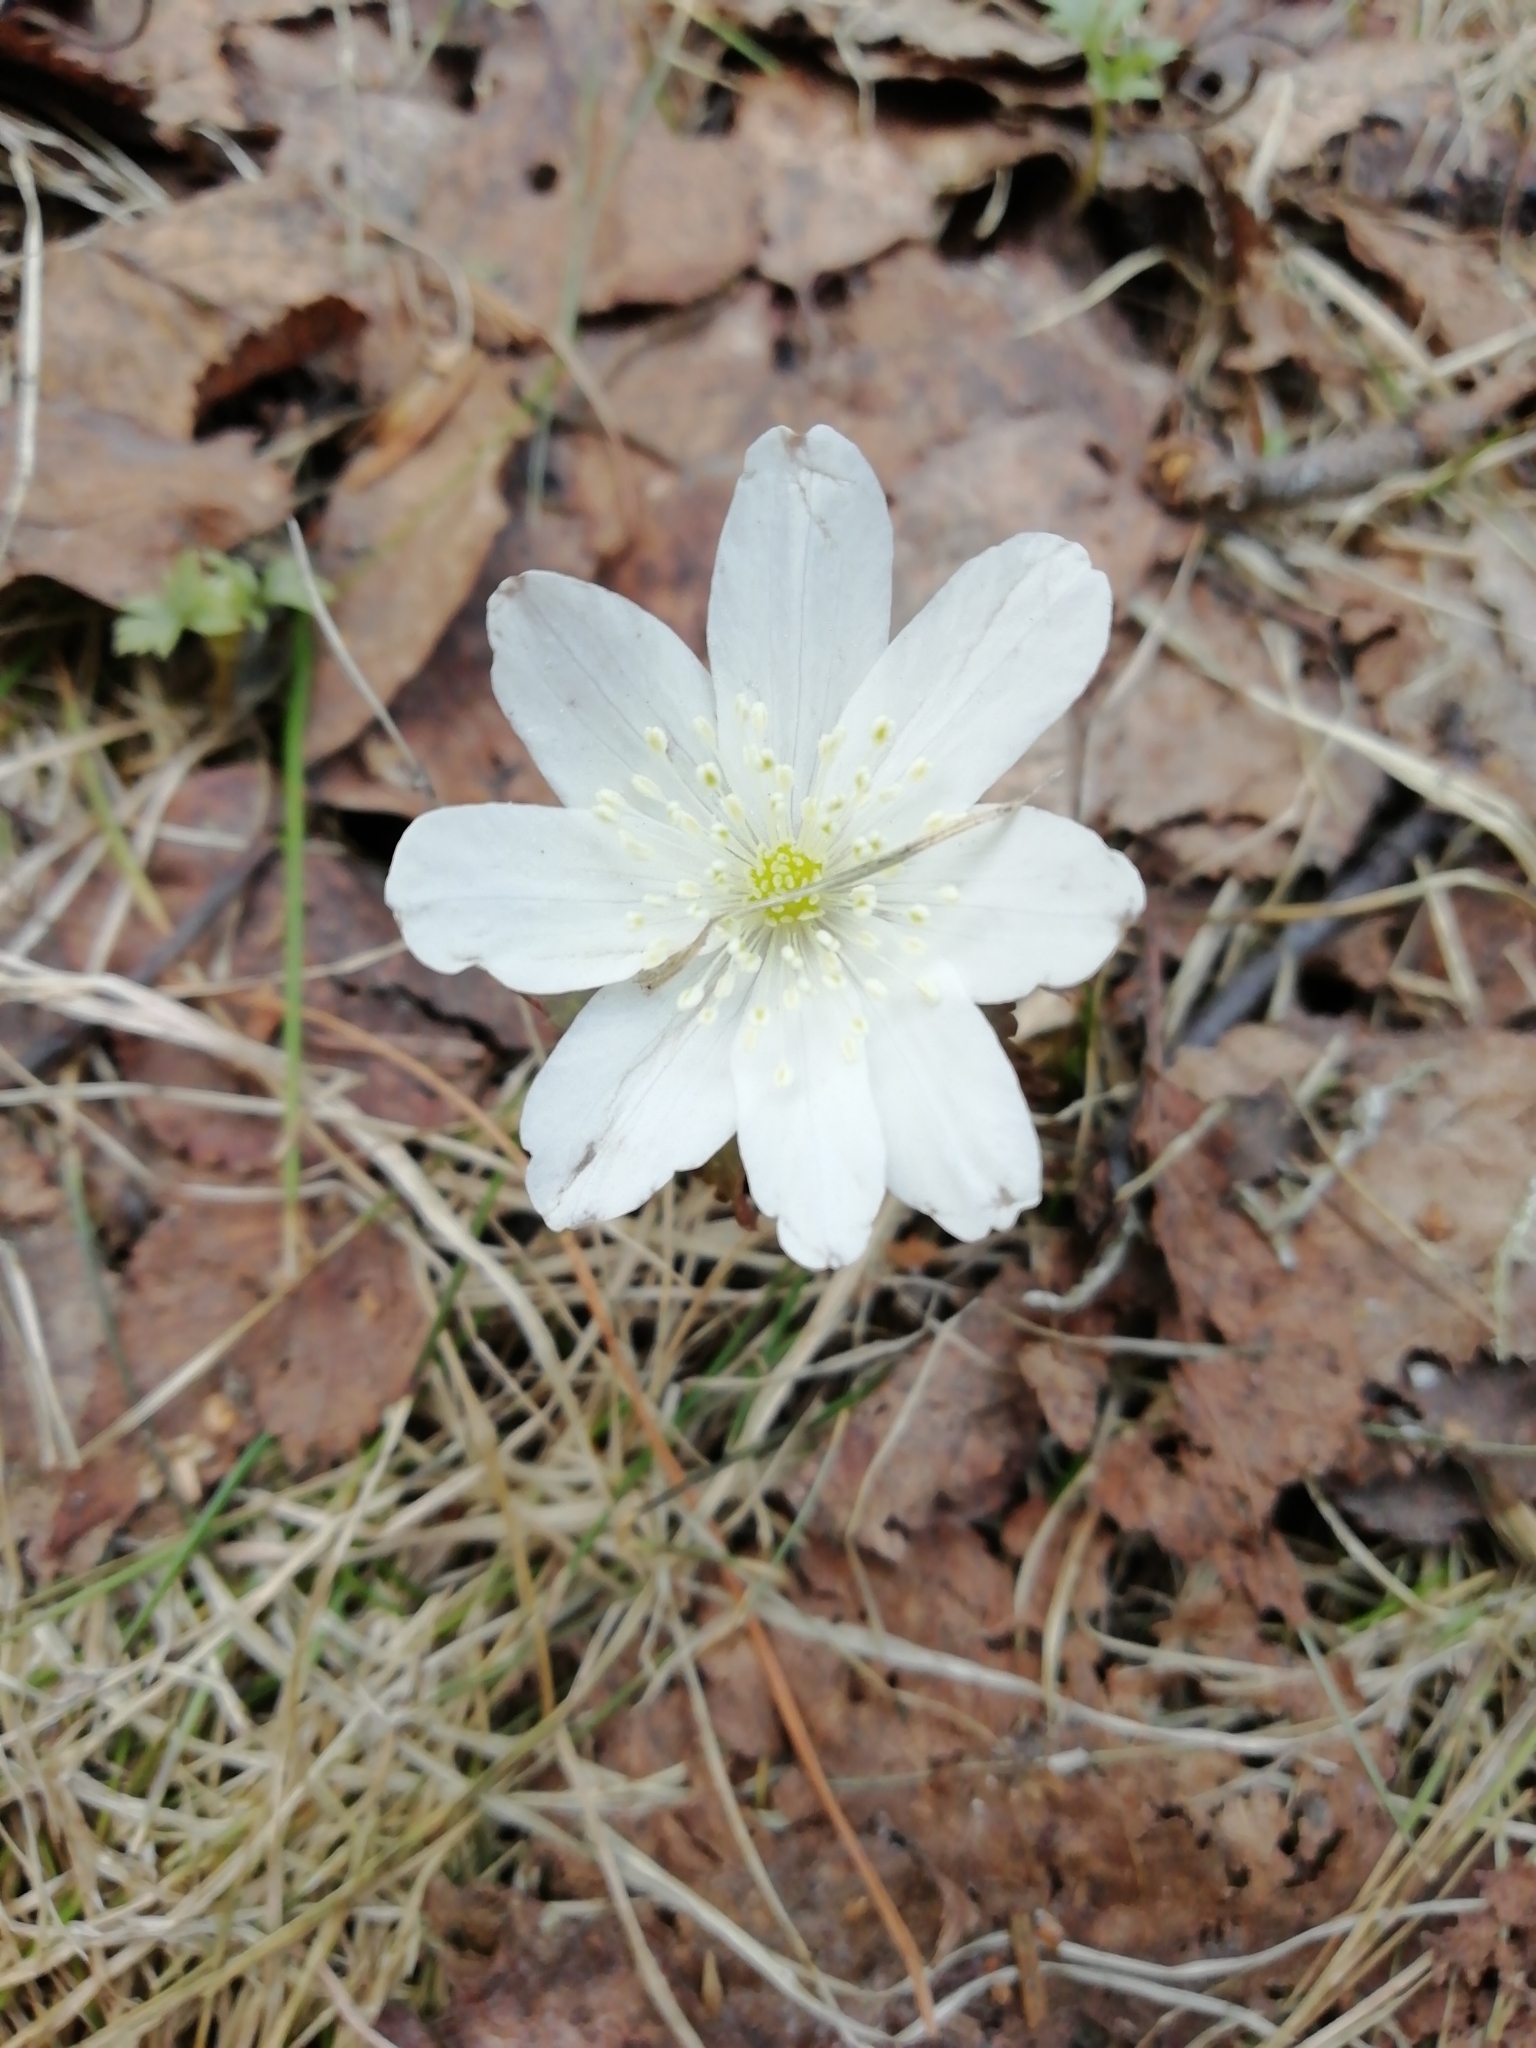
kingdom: Plantae
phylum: Tracheophyta
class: Magnoliopsida
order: Ranunculales
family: Ranunculaceae
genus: Anemone
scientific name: Anemone altaica
